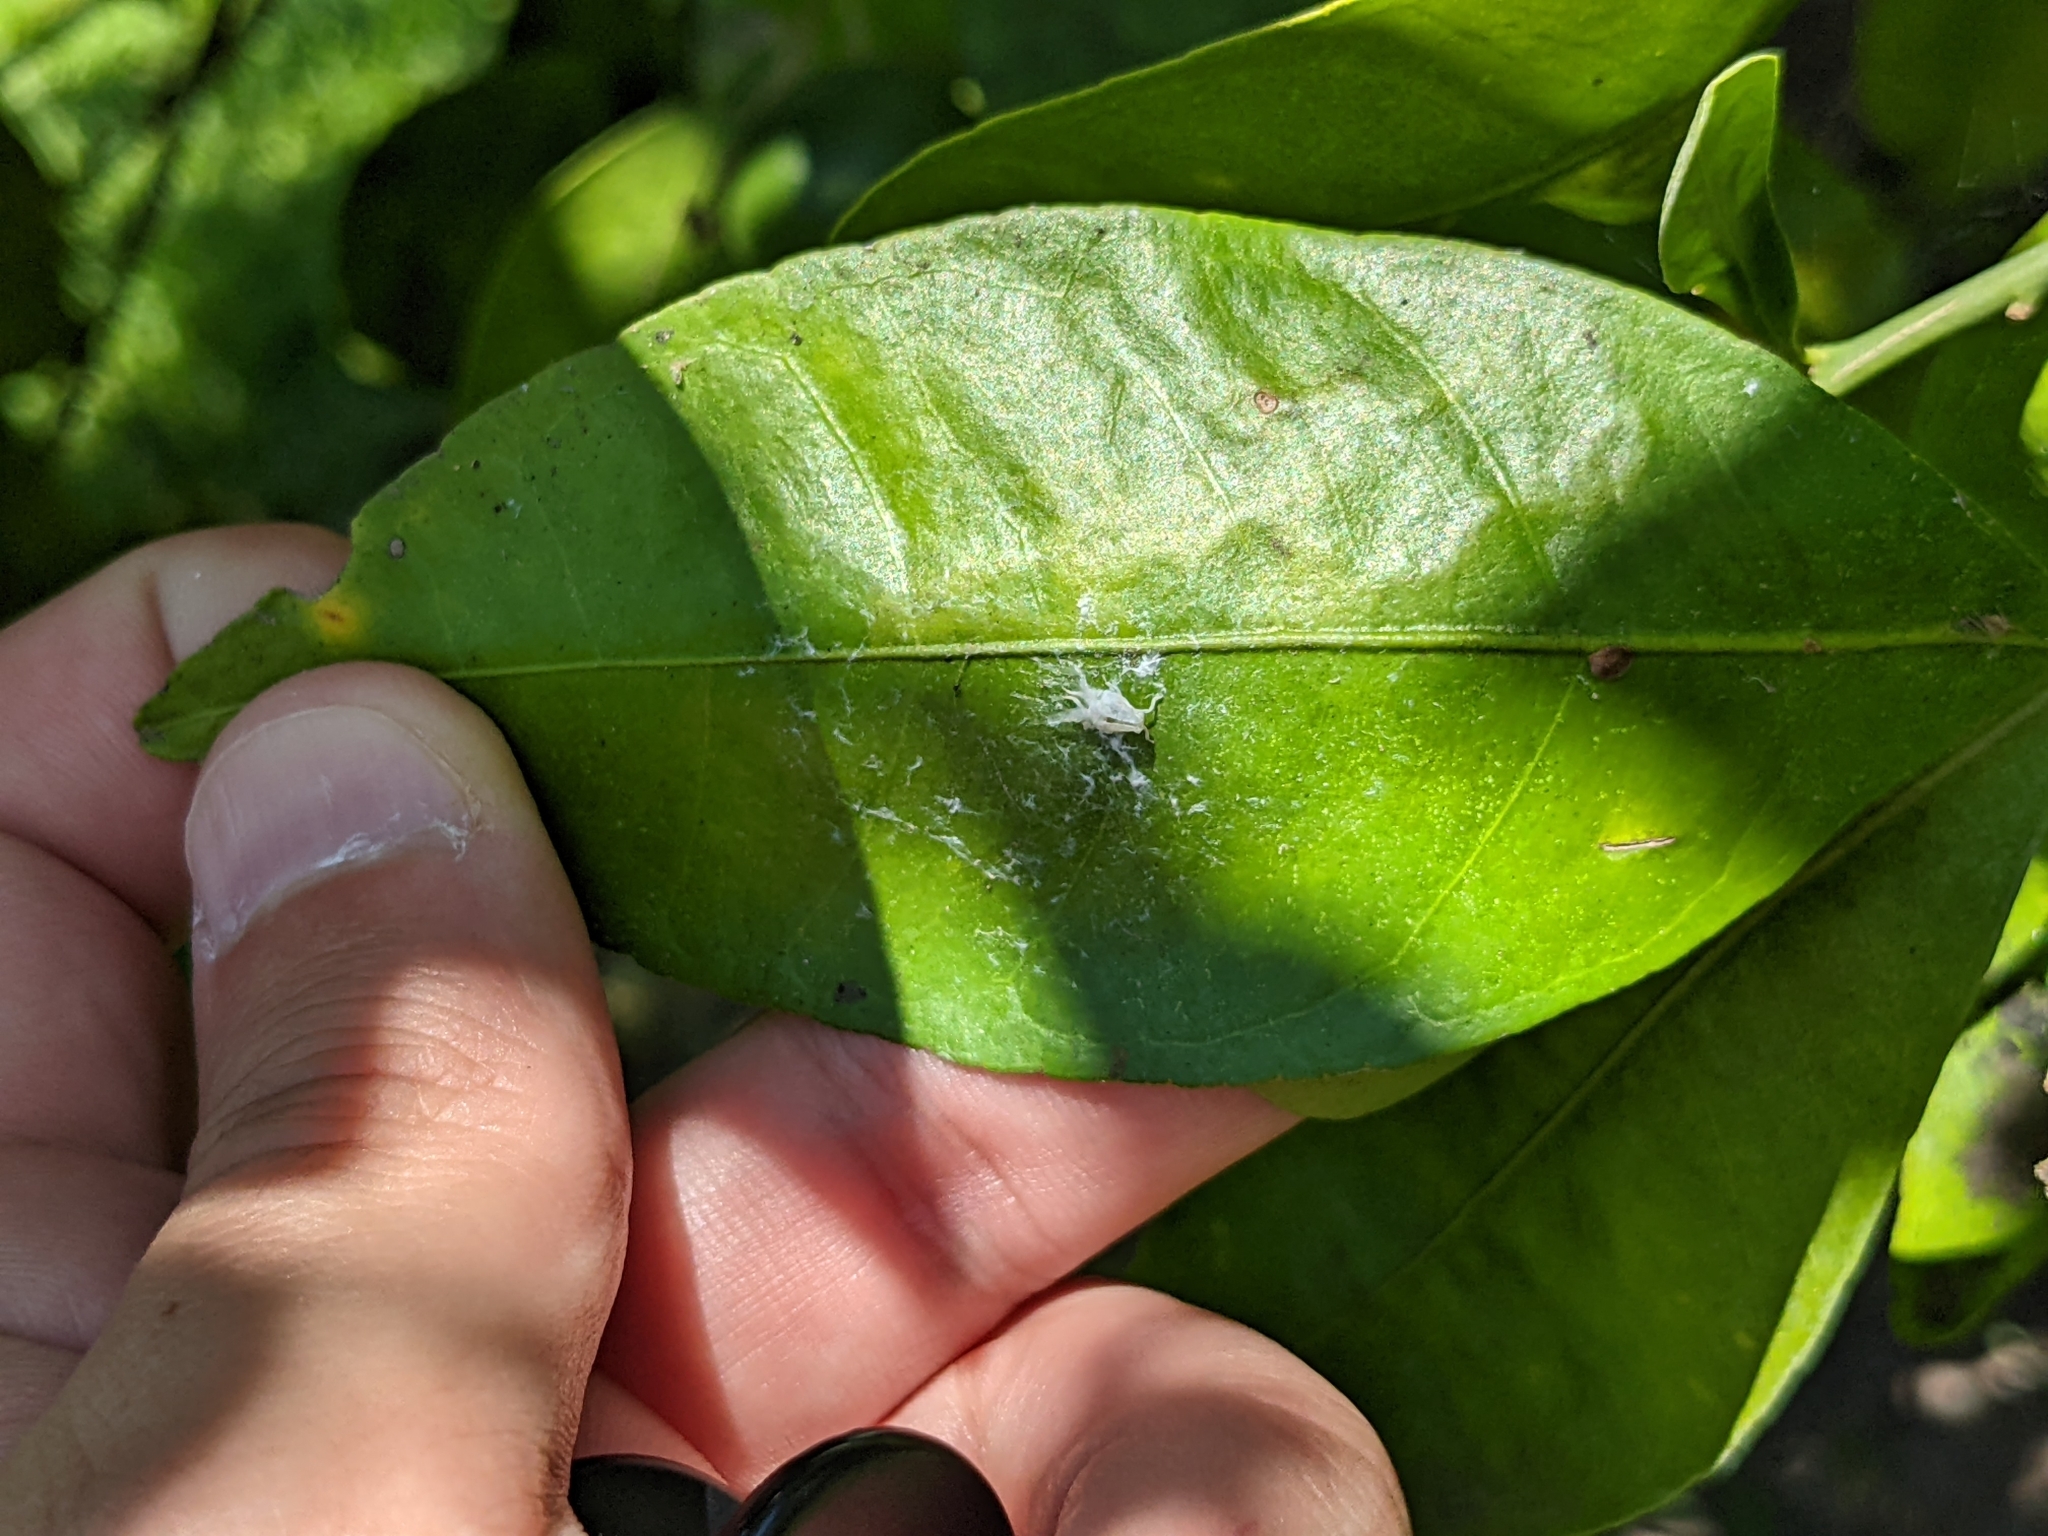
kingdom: Animalia
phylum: Arthropoda
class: Insecta
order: Lepidoptera
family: Gracillariidae
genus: Phyllocnistis
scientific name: Phyllocnistis citrella
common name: Citrus leafminer
